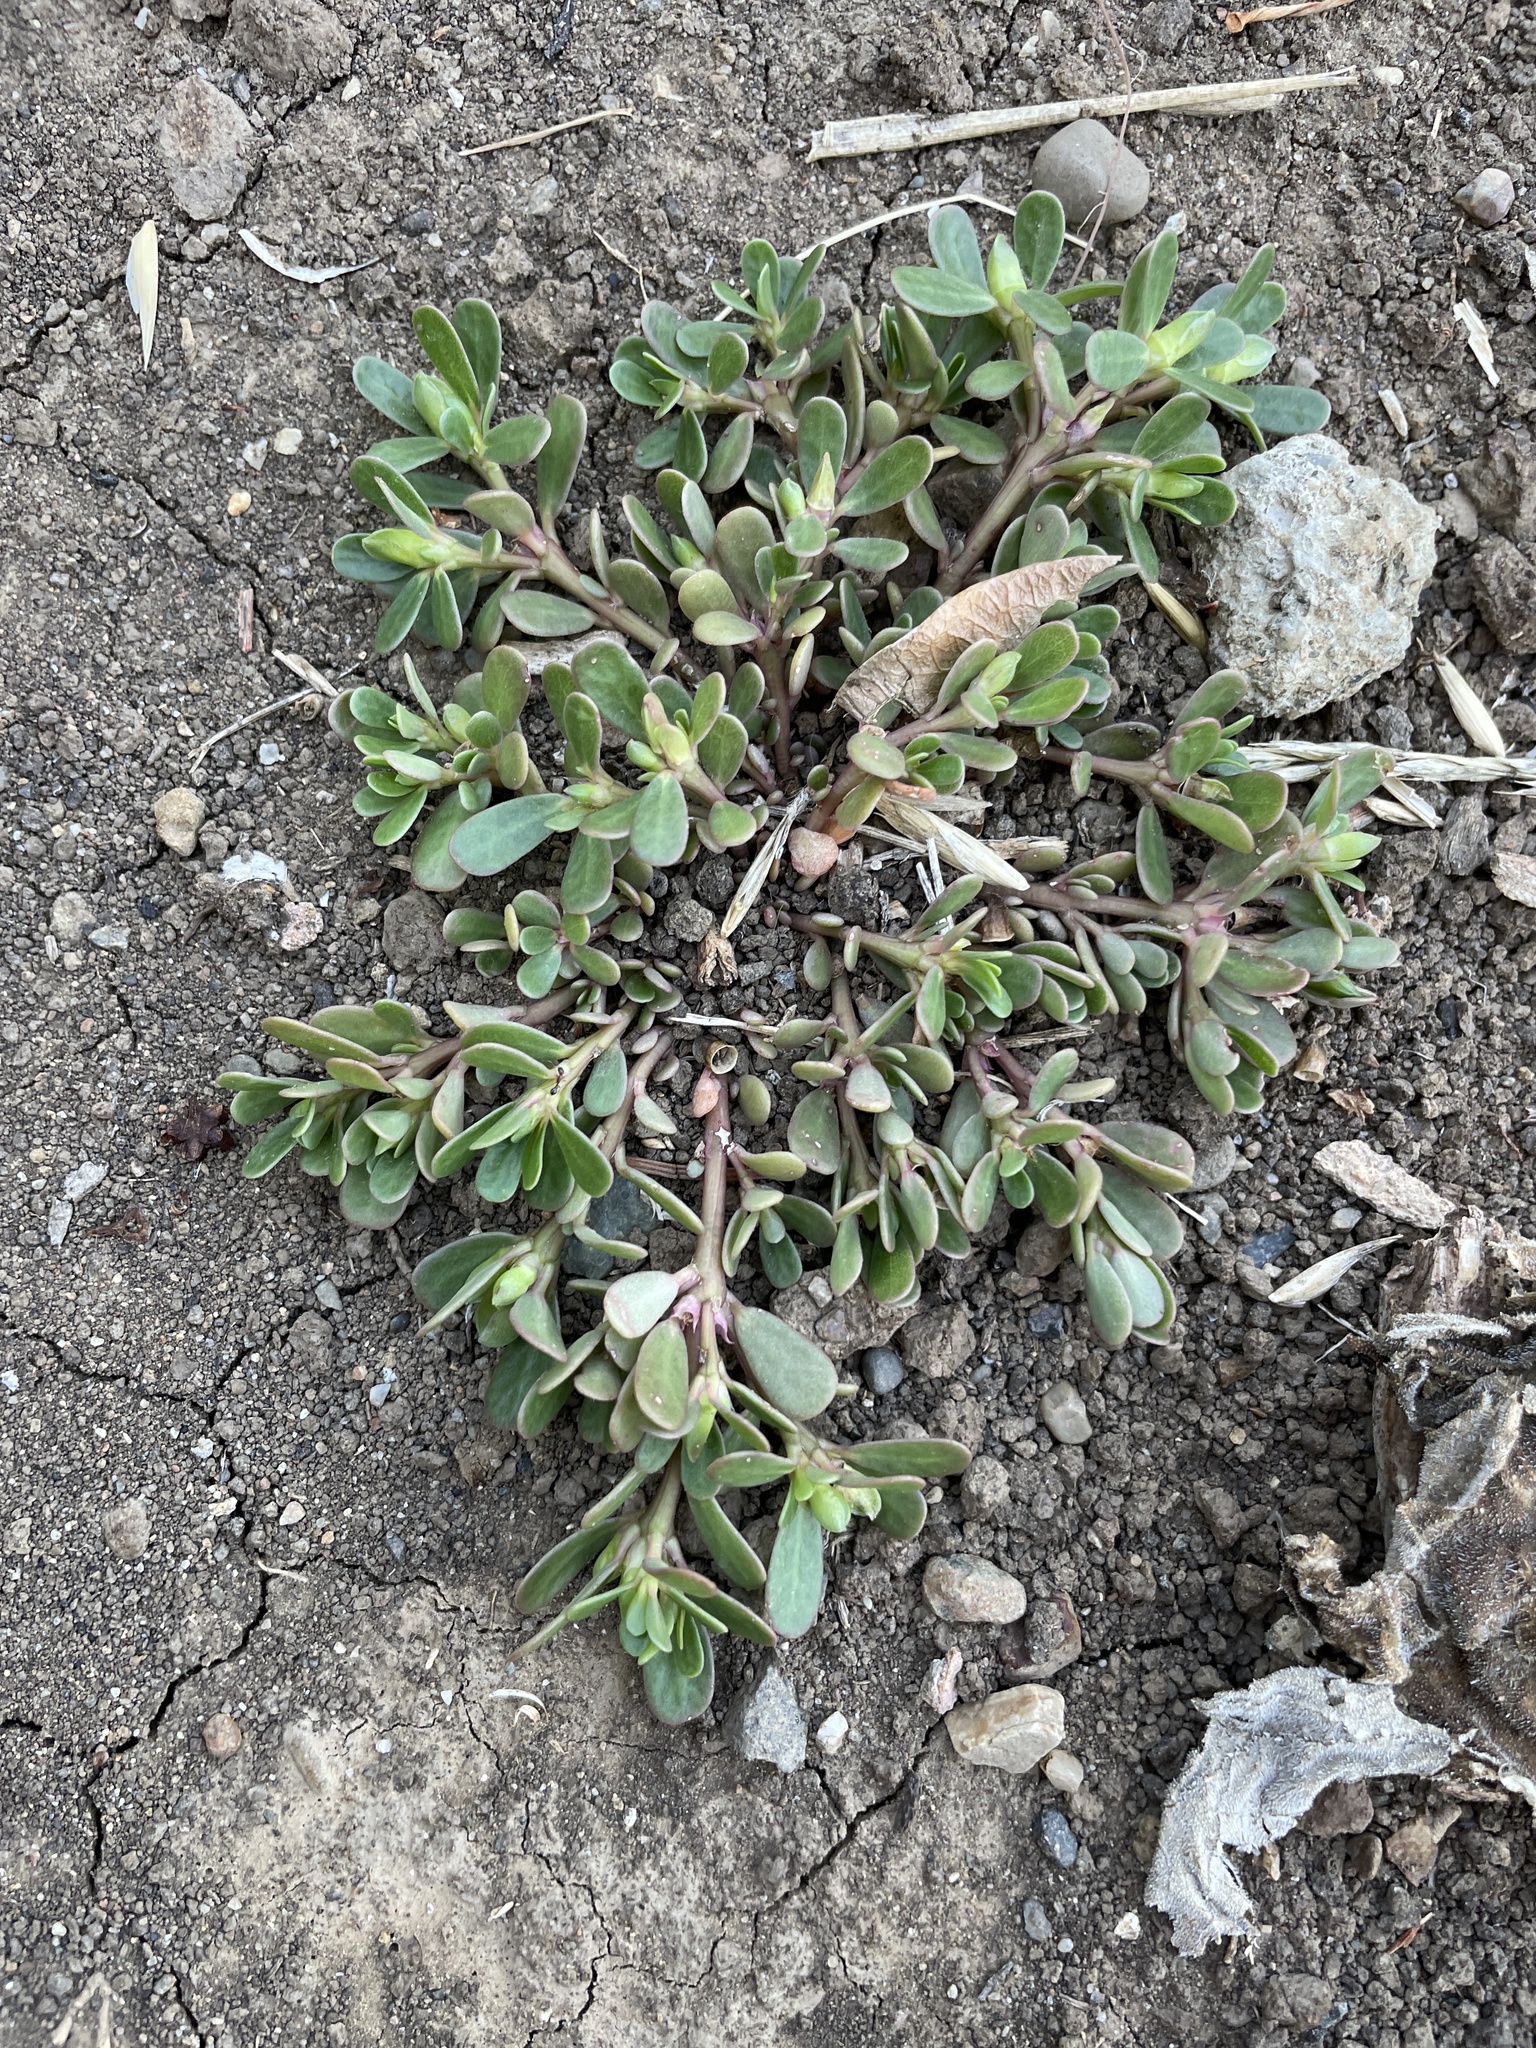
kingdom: Plantae
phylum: Tracheophyta
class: Magnoliopsida
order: Caryophyllales
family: Portulacaceae
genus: Portulaca
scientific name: Portulaca oleracea
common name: Common purslane
